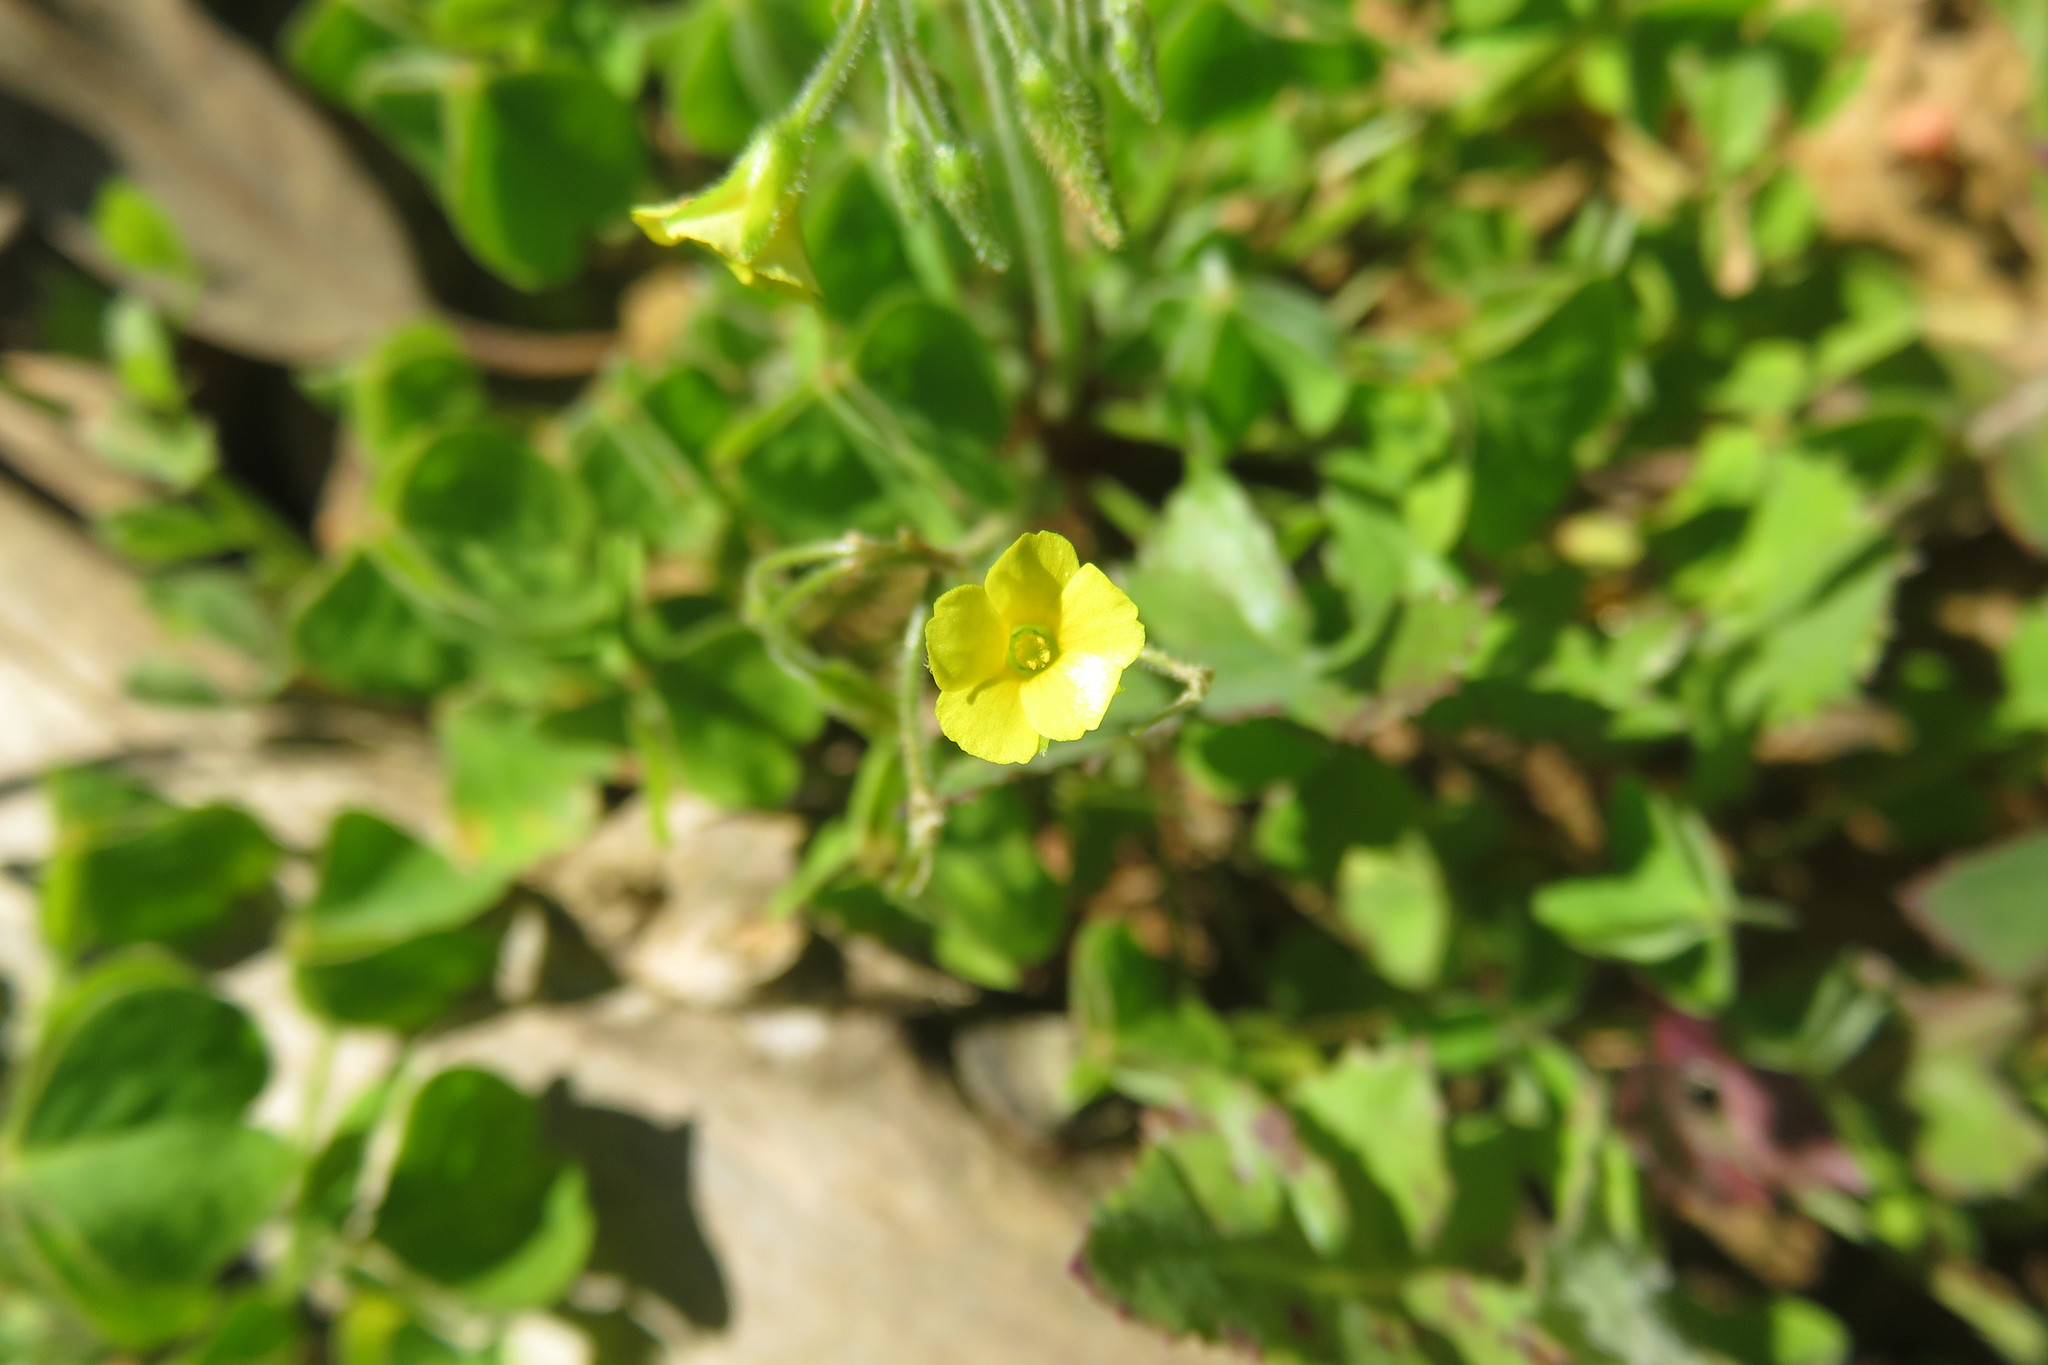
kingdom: Plantae
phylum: Tracheophyta
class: Magnoliopsida
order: Oxalidales
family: Oxalidaceae
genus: Oxalis
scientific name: Oxalis laxa
